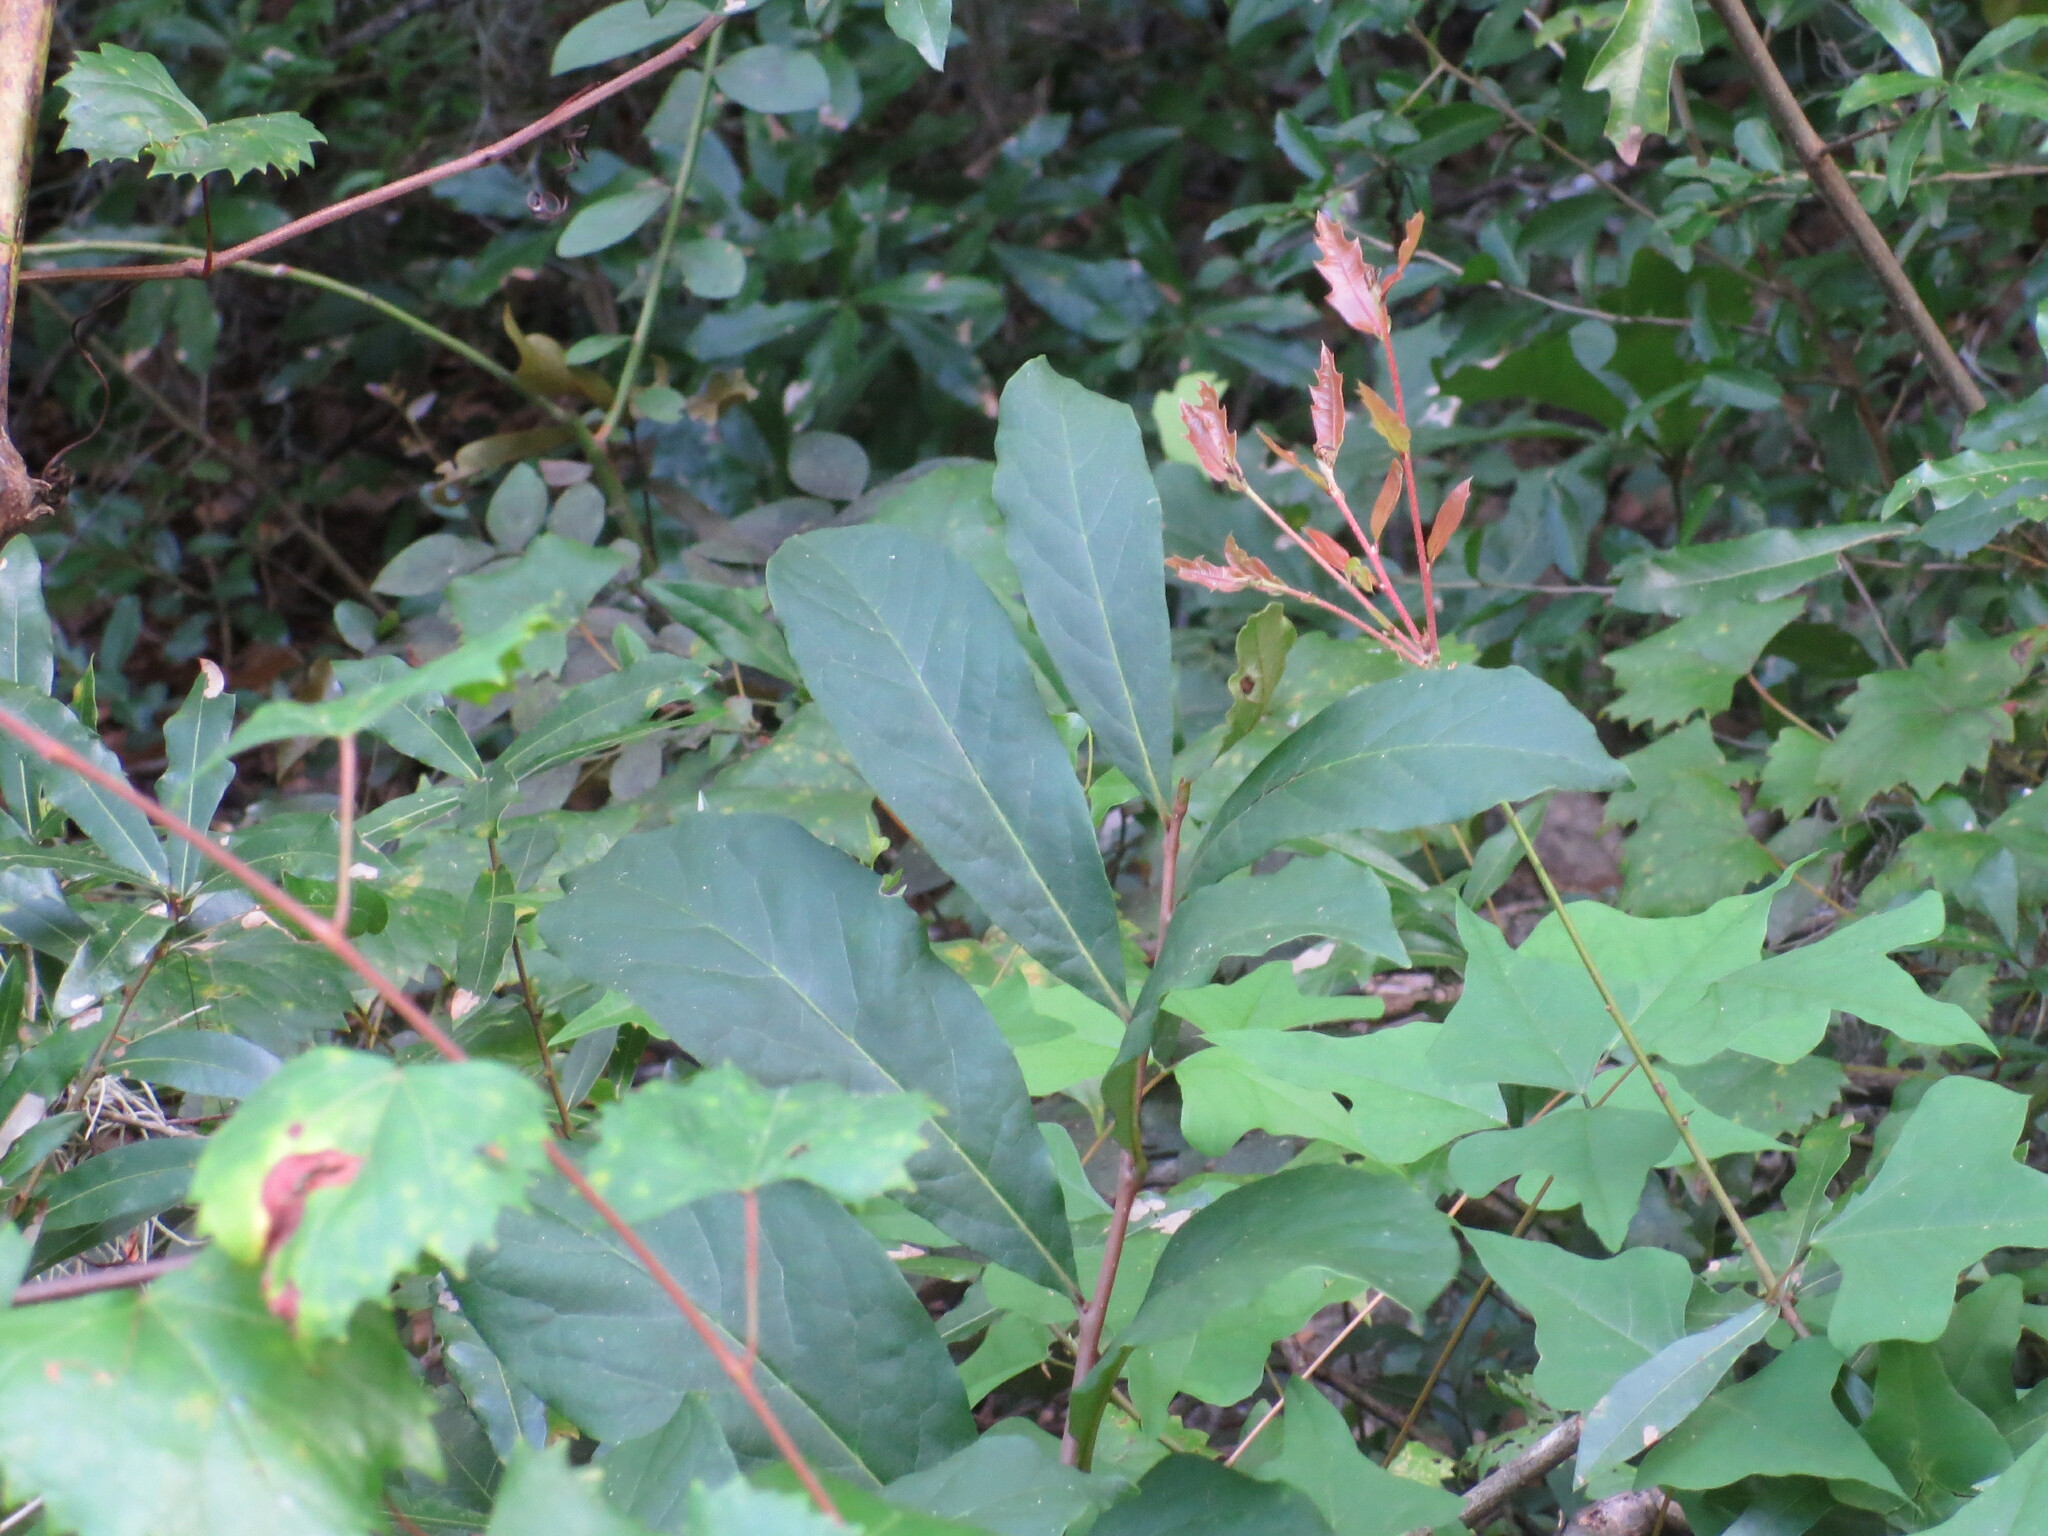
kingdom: Plantae
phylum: Tracheophyta
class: Magnoliopsida
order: Magnoliales
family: Annonaceae
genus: Asimina
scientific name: Asimina parviflora
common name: Dwarf pawpaw
